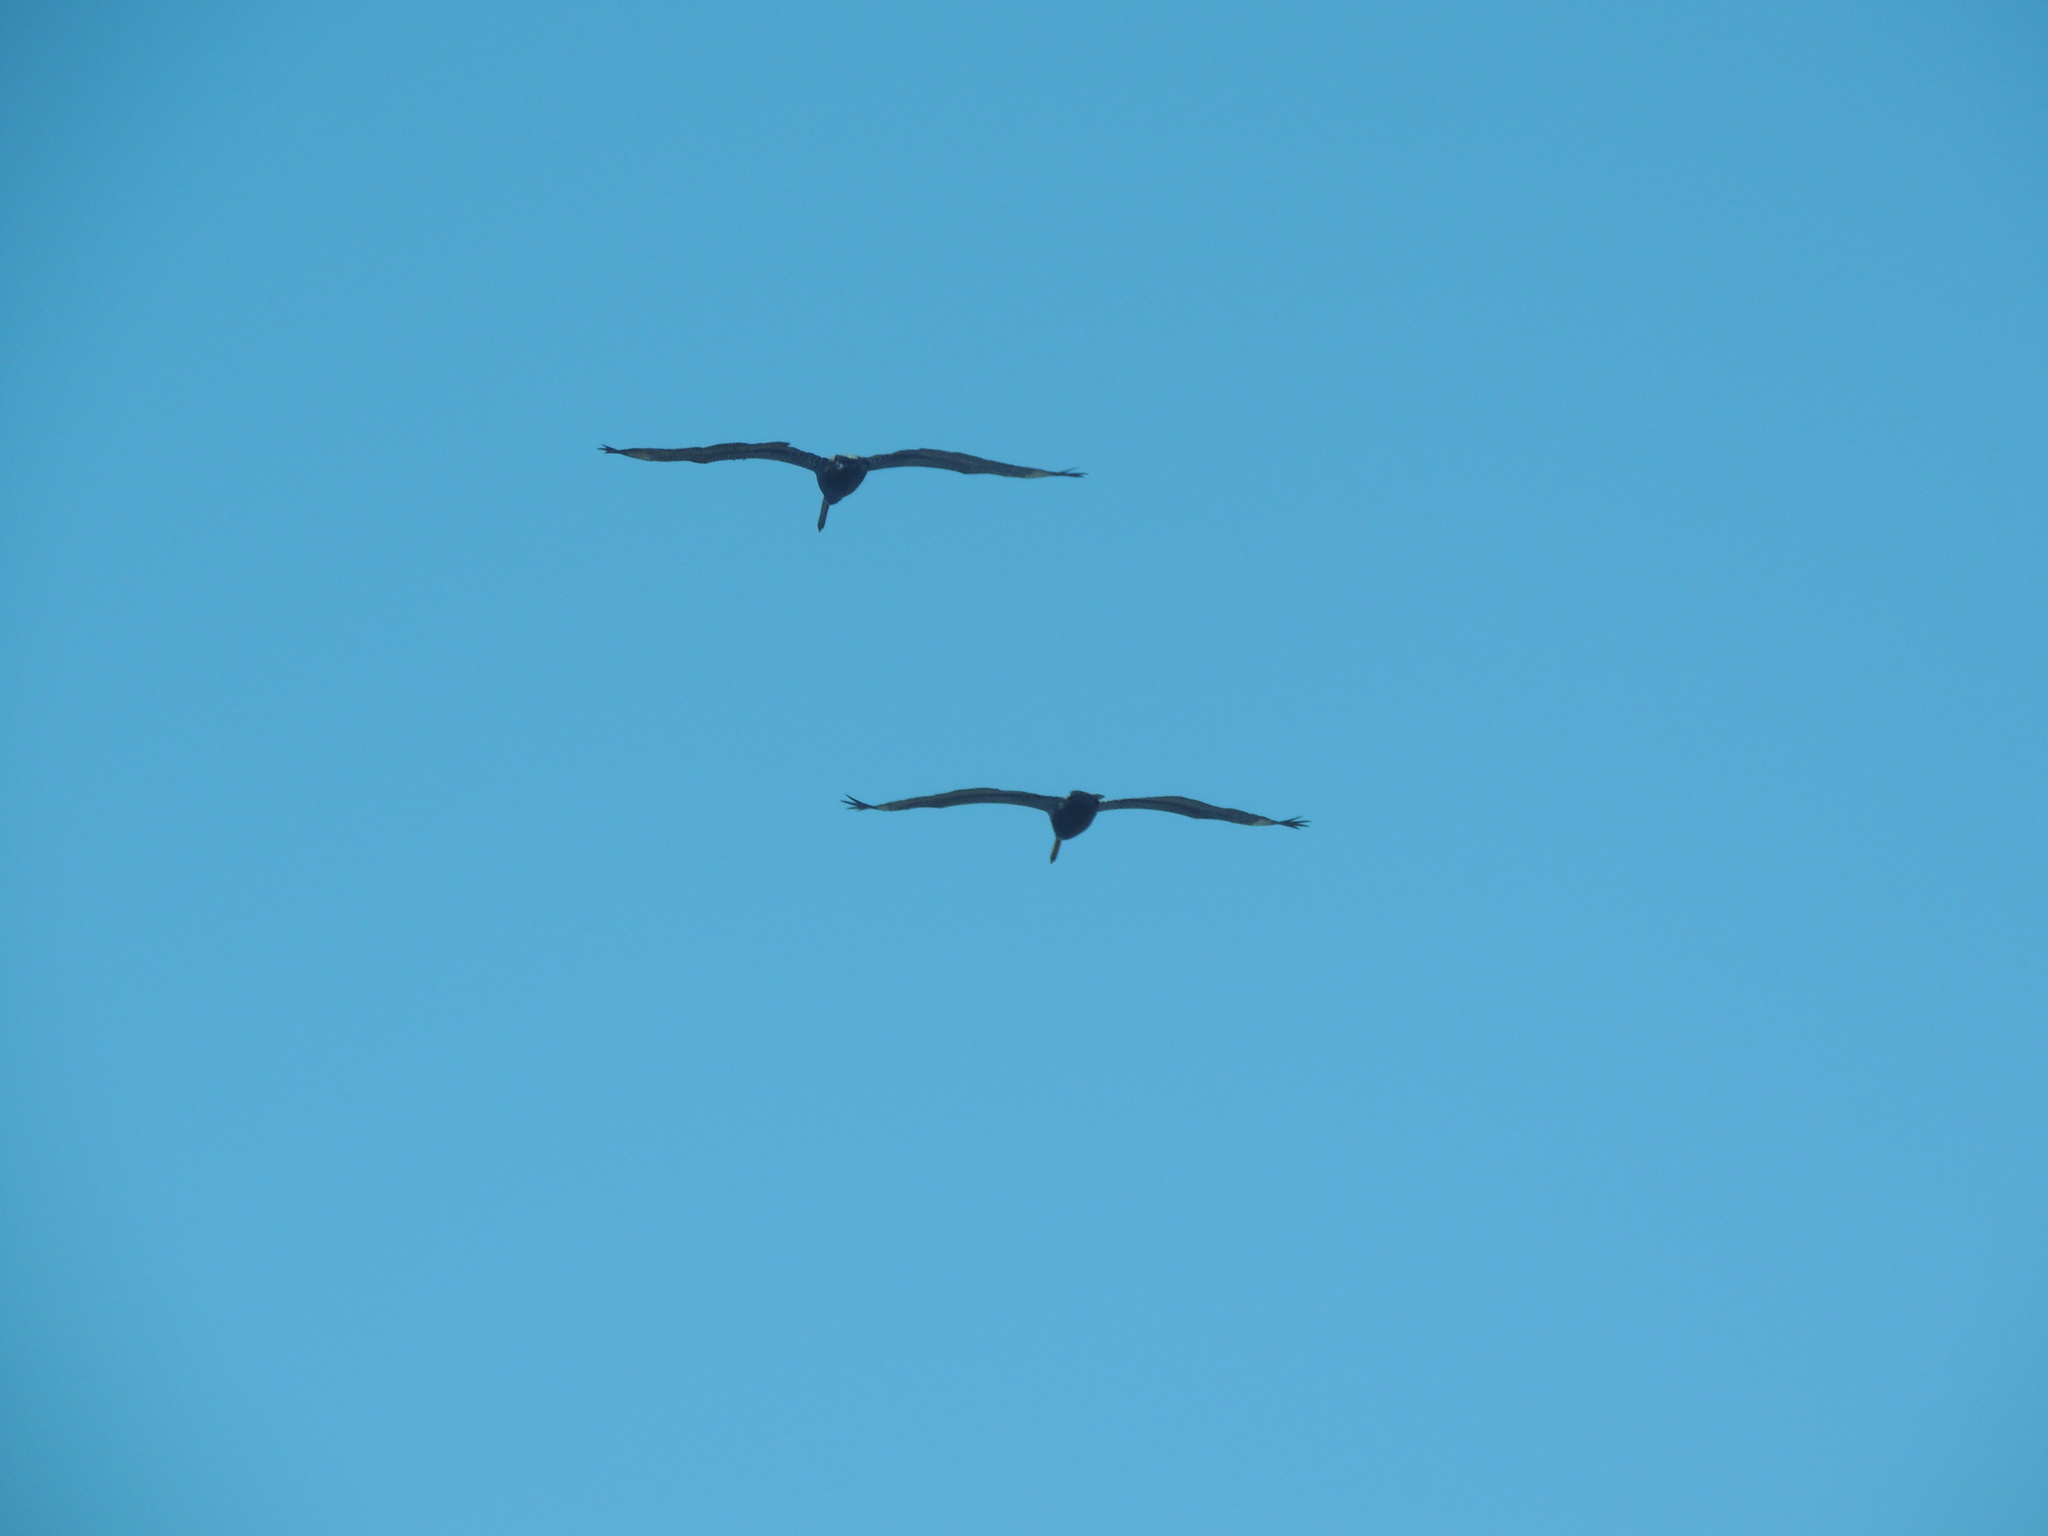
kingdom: Animalia
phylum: Chordata
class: Aves
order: Pelecaniformes
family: Pelecanidae
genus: Pelecanus
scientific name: Pelecanus occidentalis
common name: Brown pelican
